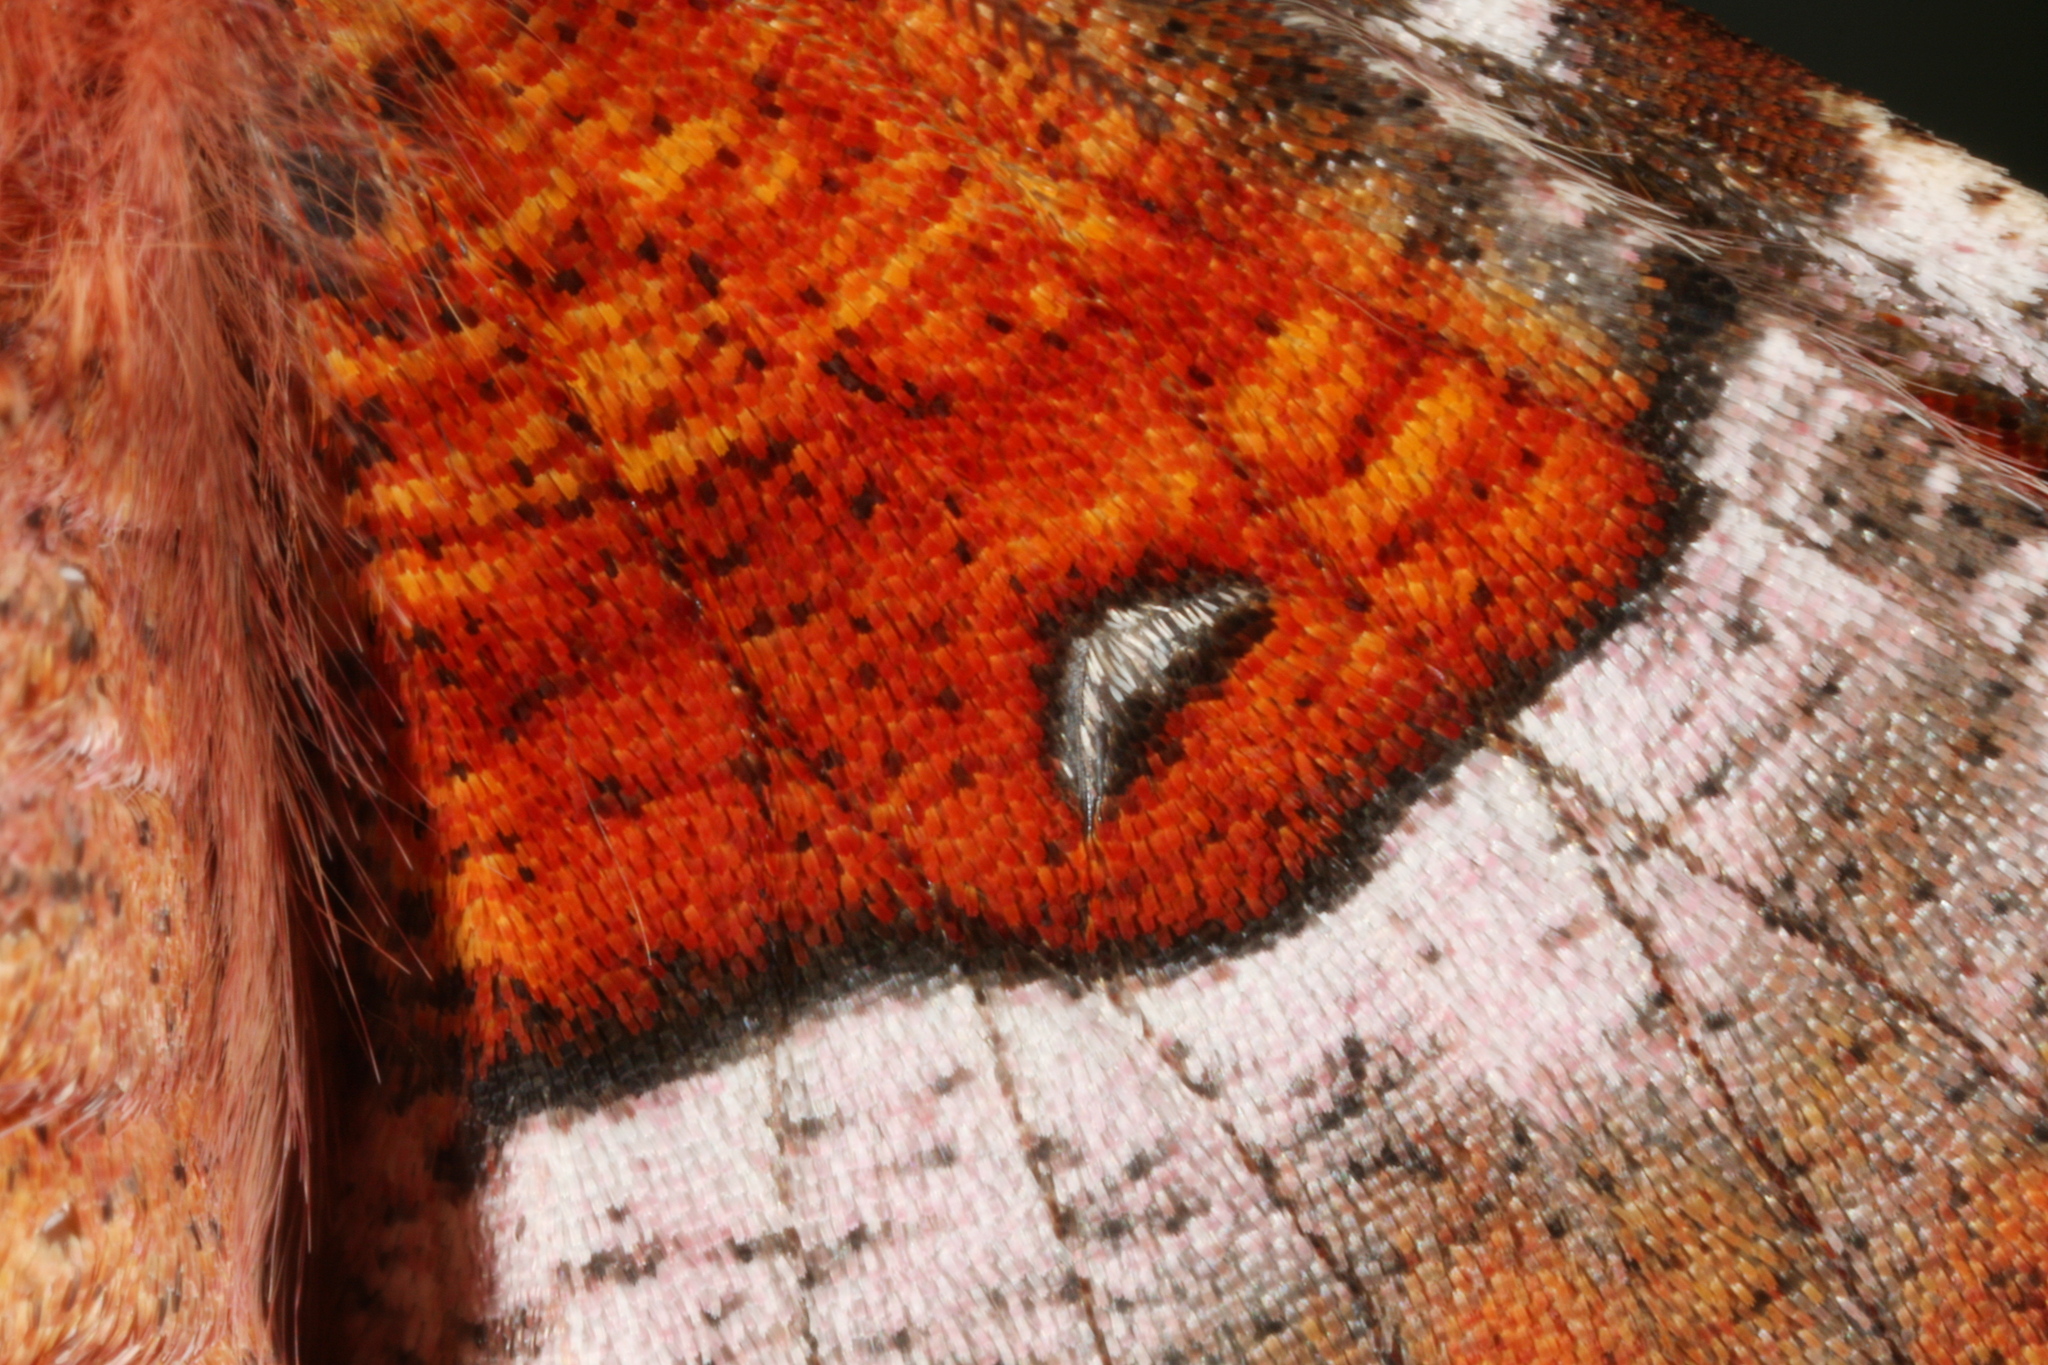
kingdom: Animalia
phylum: Arthropoda
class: Insecta
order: Lepidoptera
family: Geometridae
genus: Selenia
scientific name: Selenia tetralunaria
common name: Purple thorn
